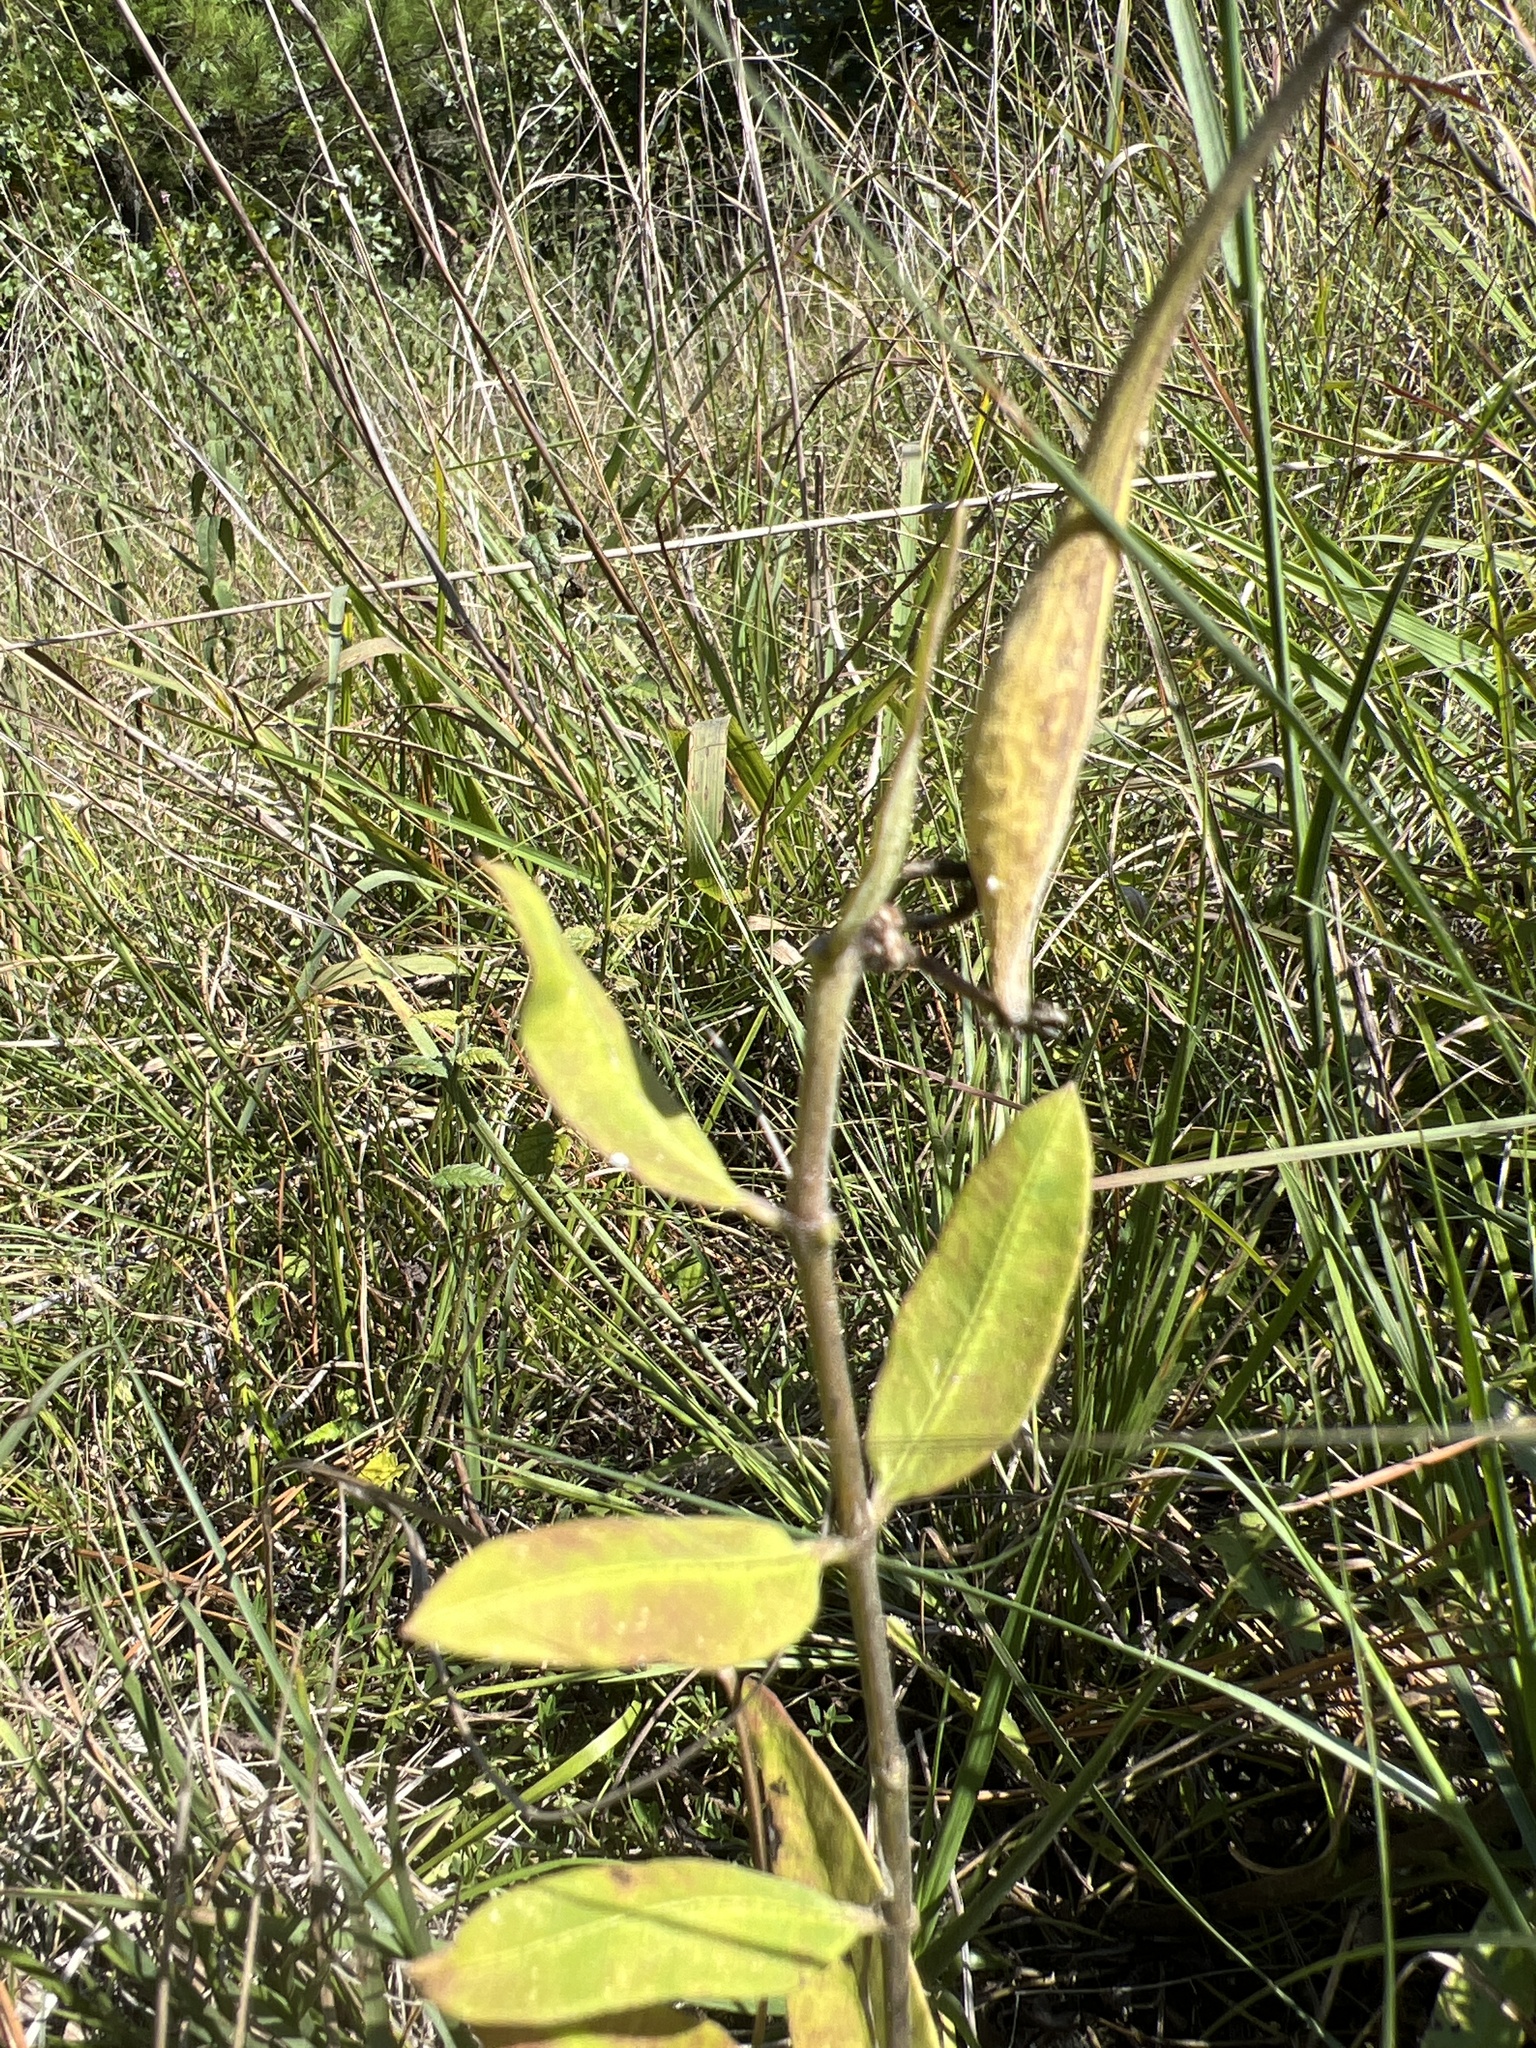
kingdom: Plantae
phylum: Tracheophyta
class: Magnoliopsida
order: Gentianales
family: Apocynaceae
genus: Asclepias
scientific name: Asclepias viridiflora
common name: Green comet milkweed
